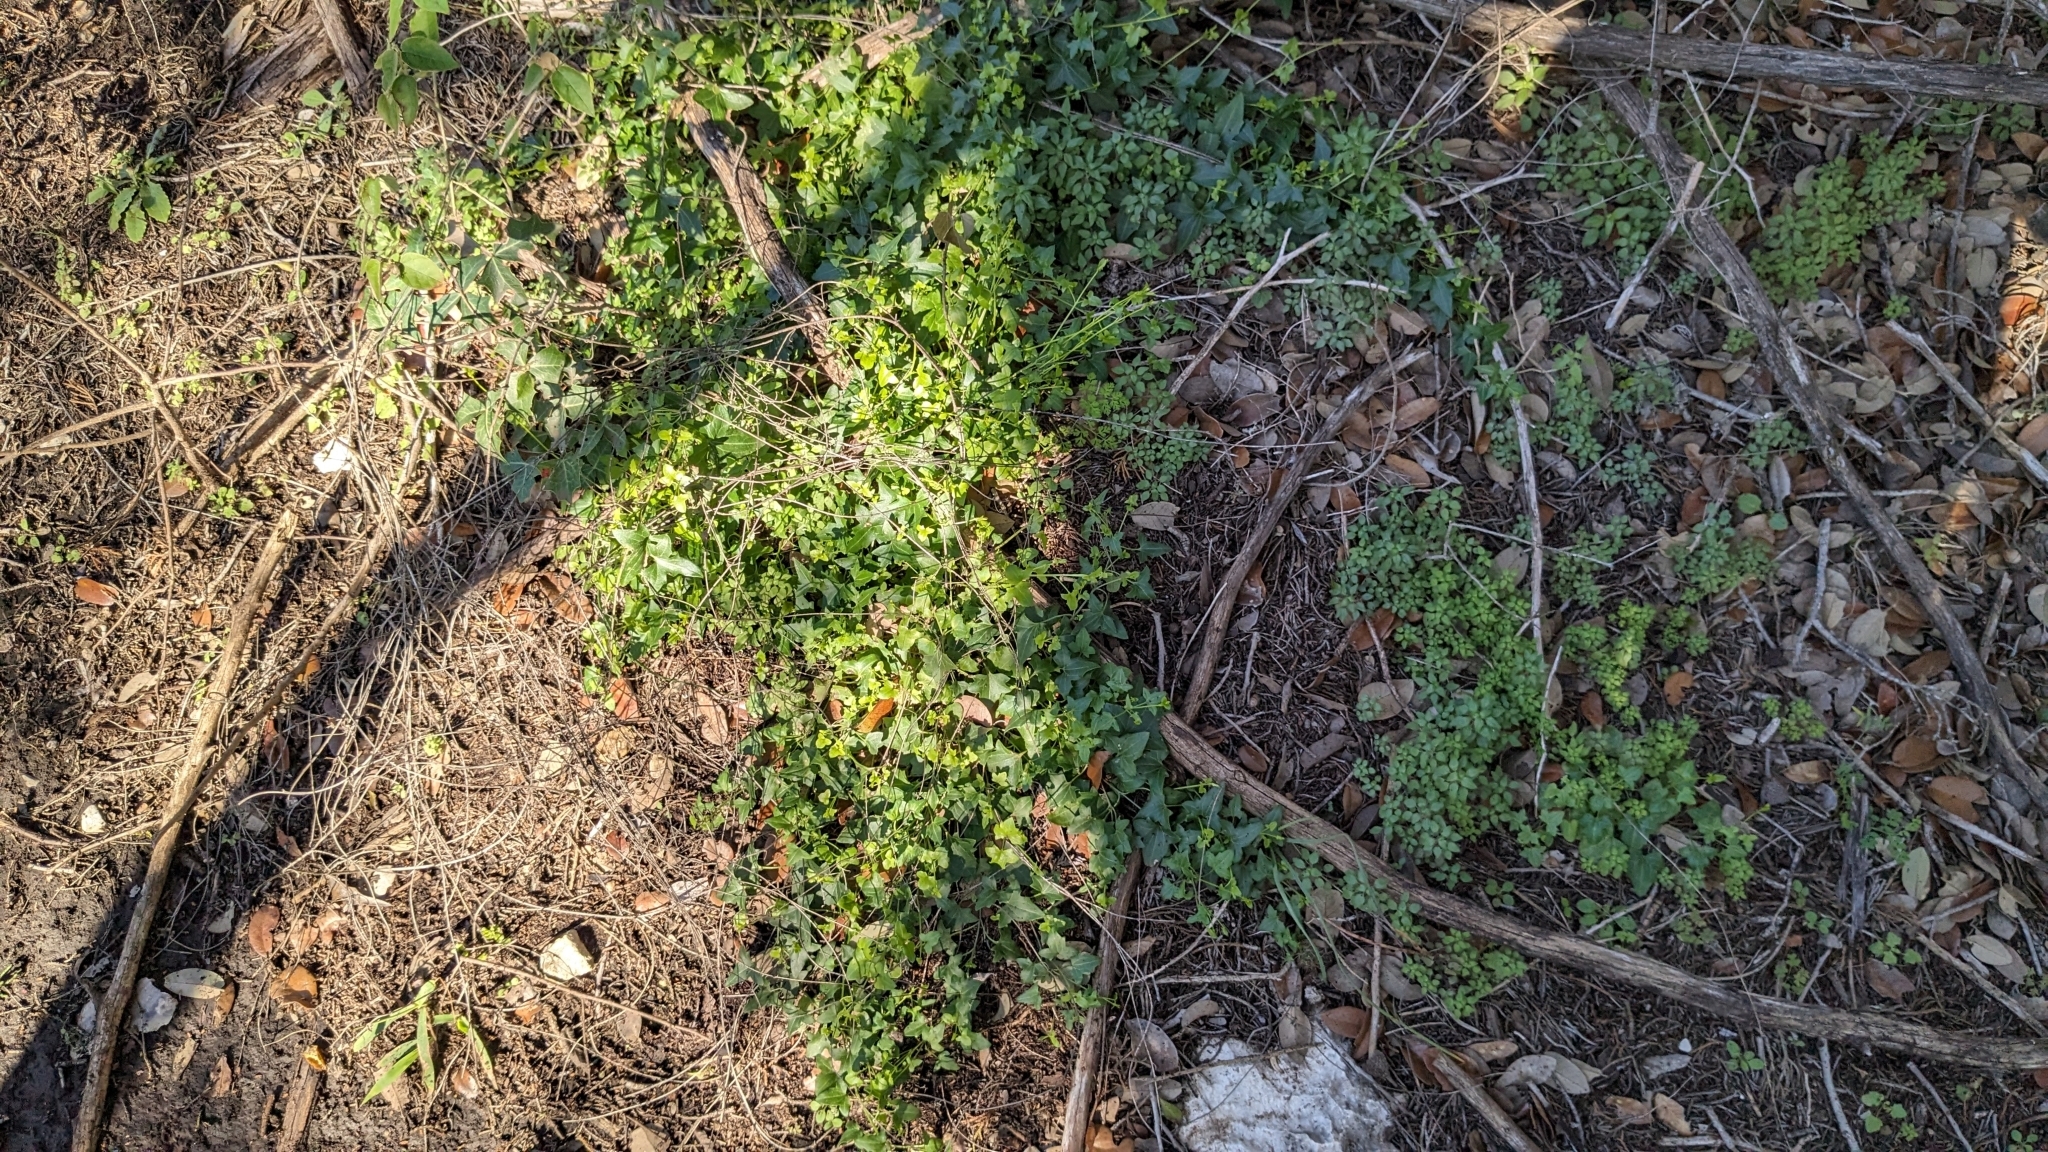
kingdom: Plantae
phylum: Tracheophyta
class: Magnoliopsida
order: Lamiales
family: Plantaginaceae
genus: Maurandella
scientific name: Maurandella antirrhiniflora
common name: Violet twining-snapdragon
